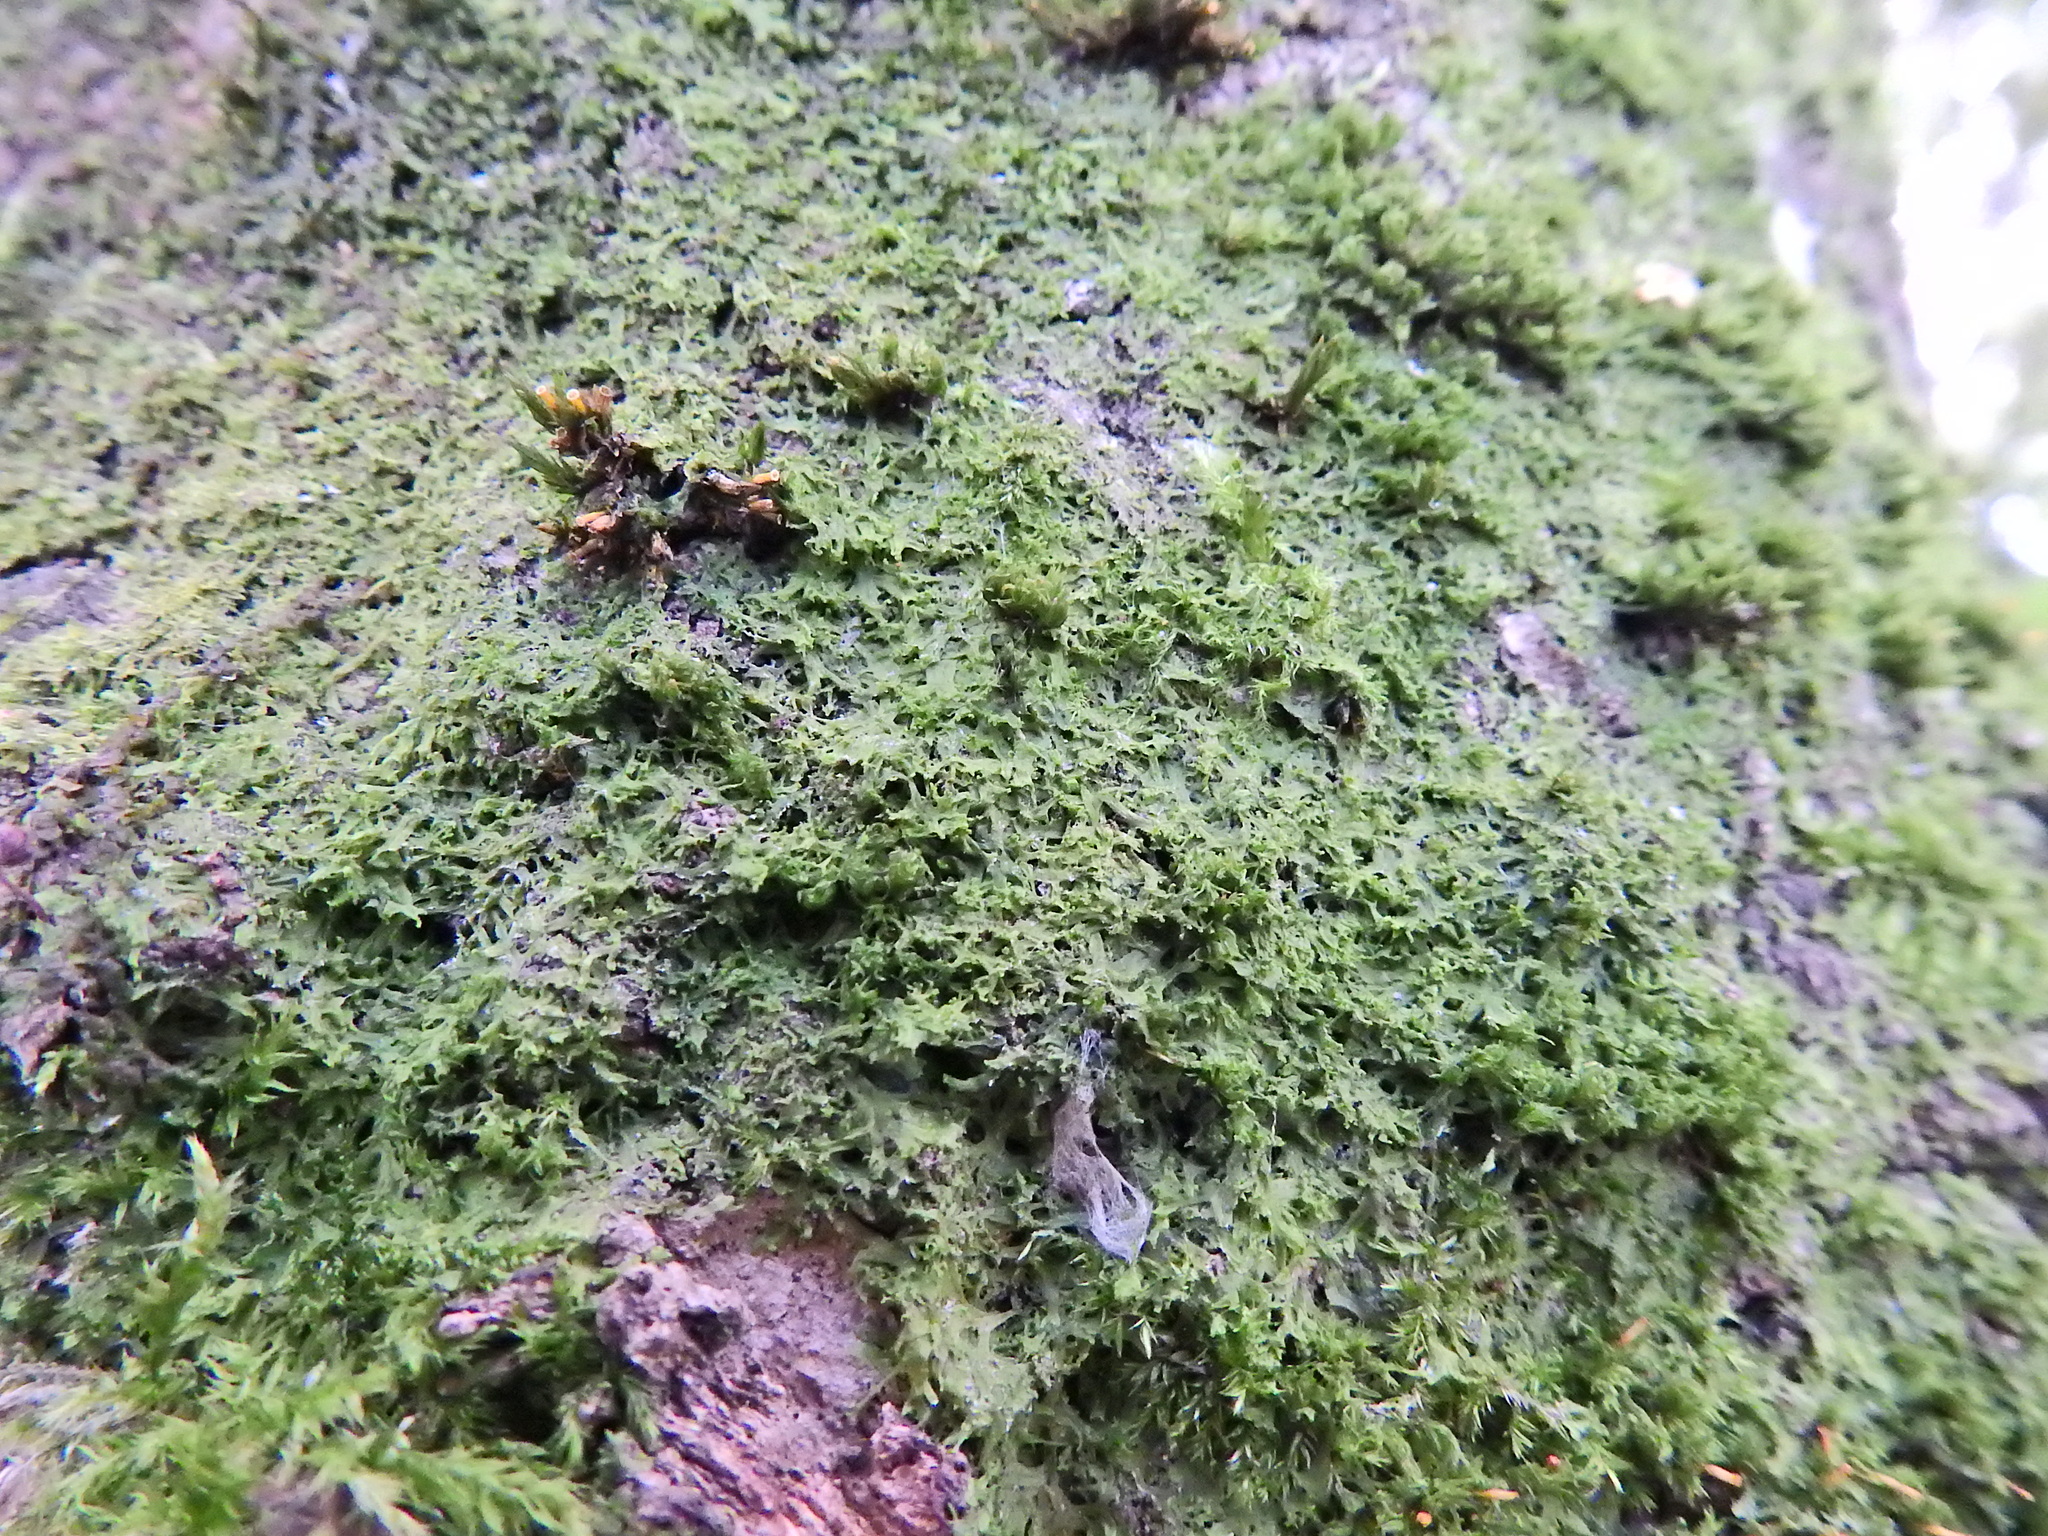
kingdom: Plantae
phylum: Marchantiophyta
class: Jungermanniopsida
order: Metzgeriales
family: Metzgeriaceae
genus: Metzgeria
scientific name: Metzgeria violacea
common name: Blueish veilwort
